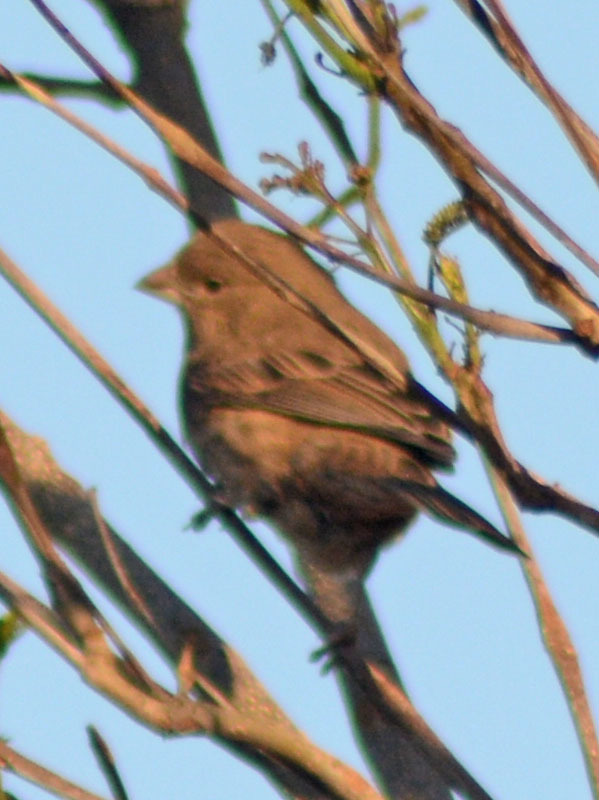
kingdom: Animalia
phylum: Chordata
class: Aves
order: Passeriformes
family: Fringillidae
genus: Haemorhous
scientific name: Haemorhous mexicanus
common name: House finch
